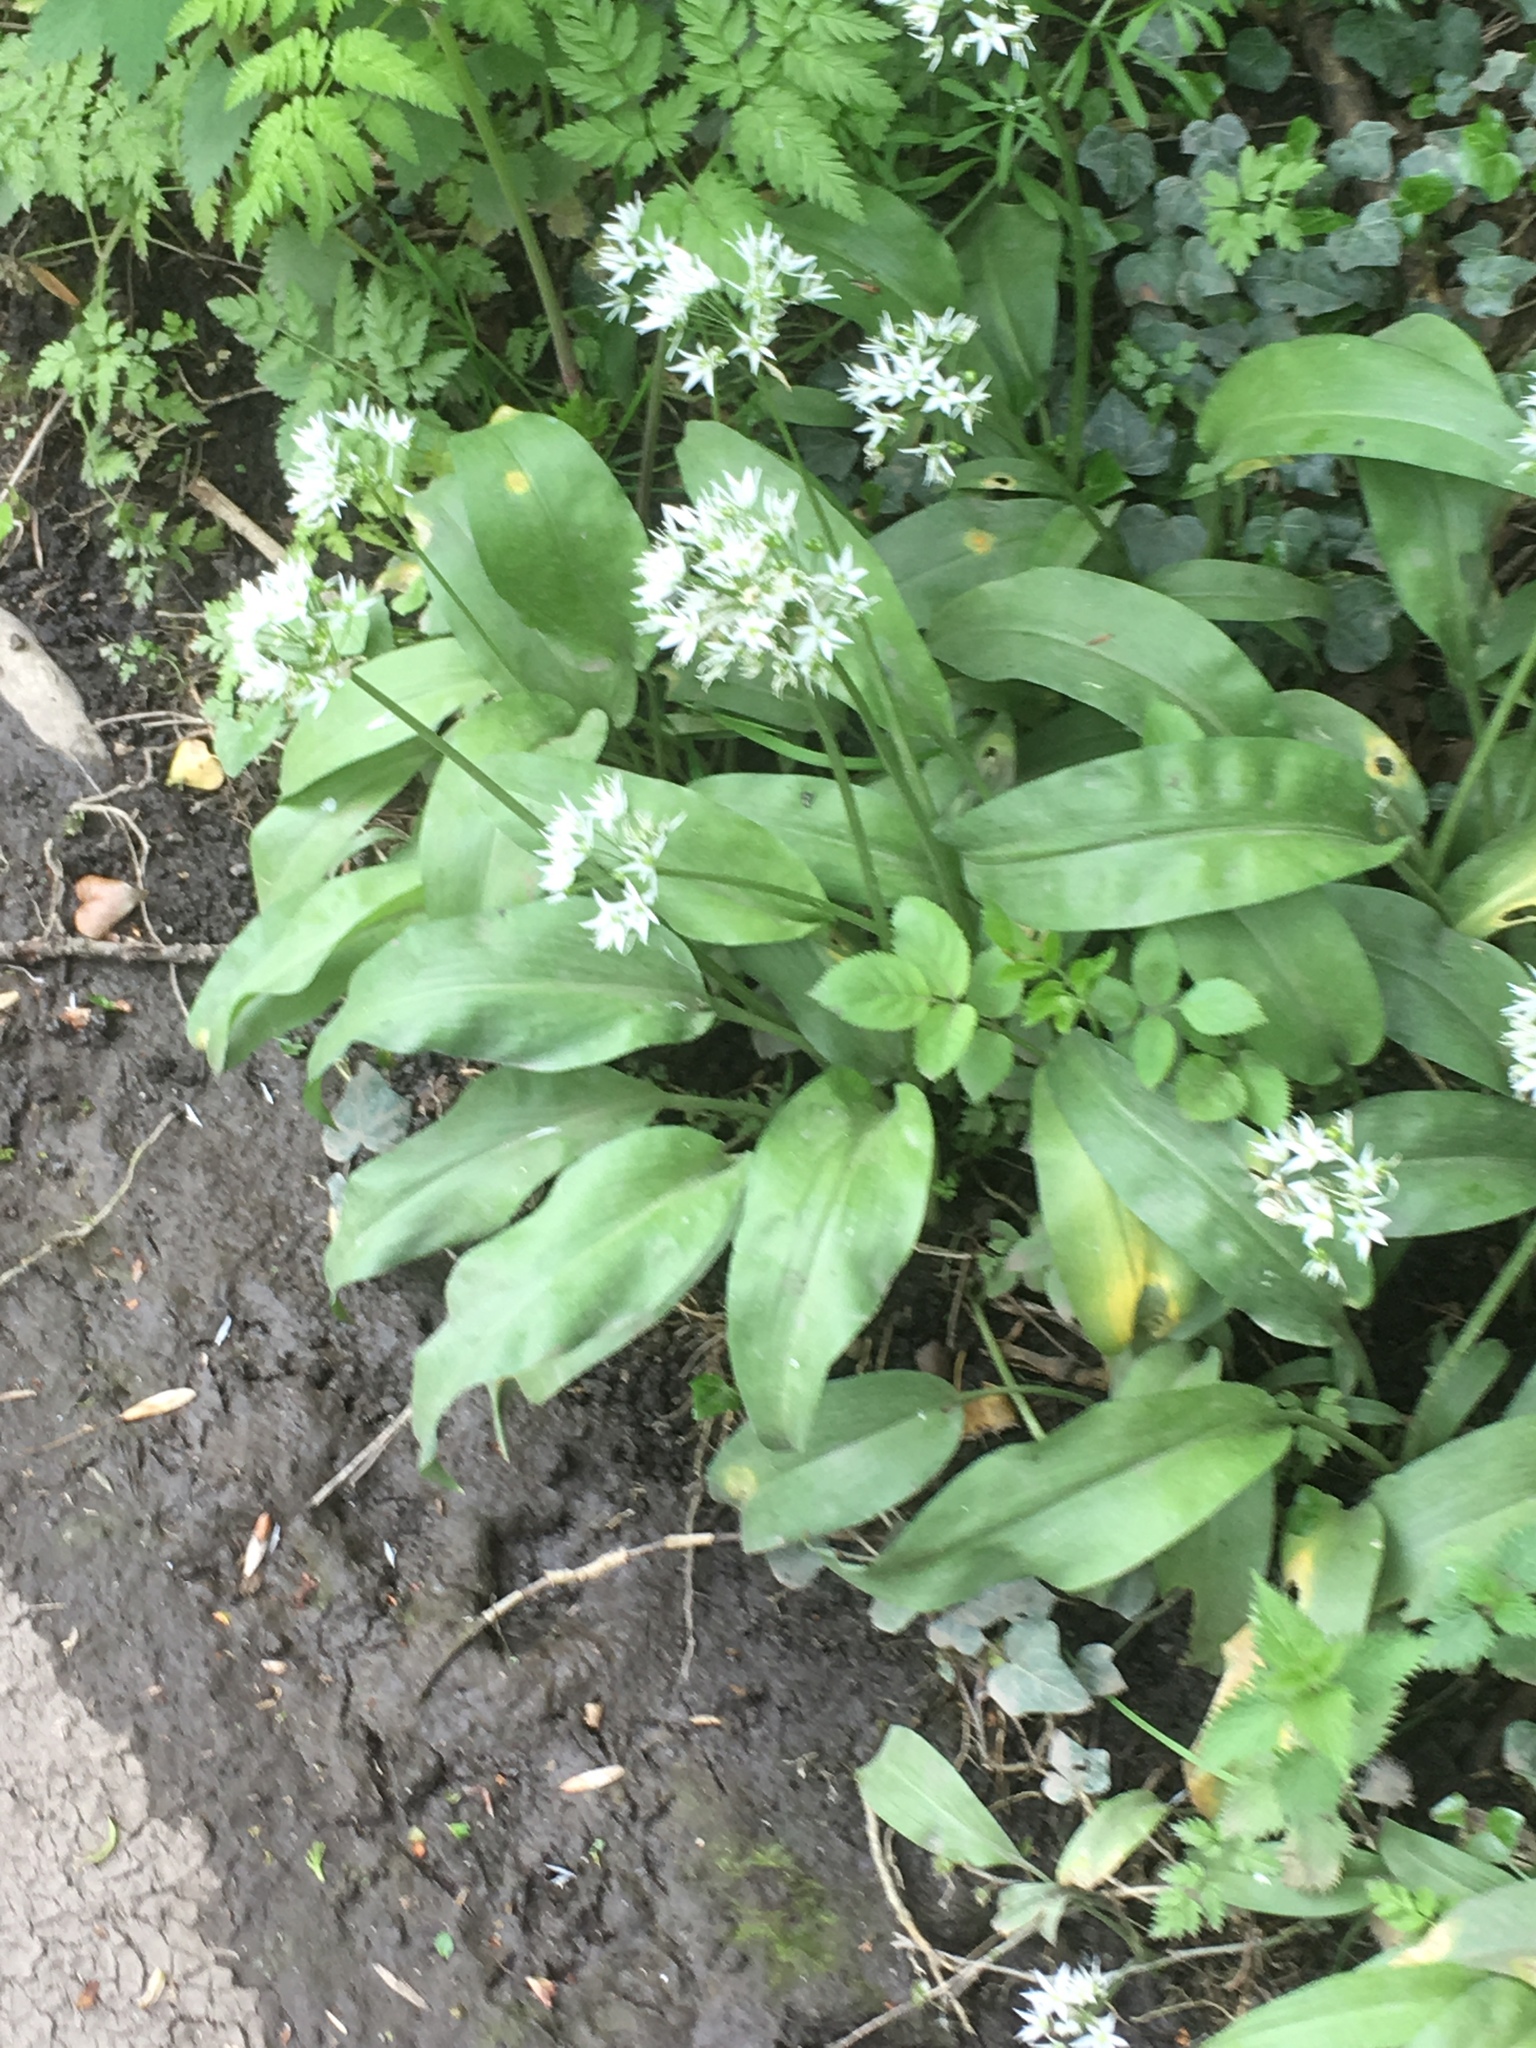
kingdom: Plantae
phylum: Tracheophyta
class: Liliopsida
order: Asparagales
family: Amaryllidaceae
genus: Allium
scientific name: Allium ursinum
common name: Ramsons
